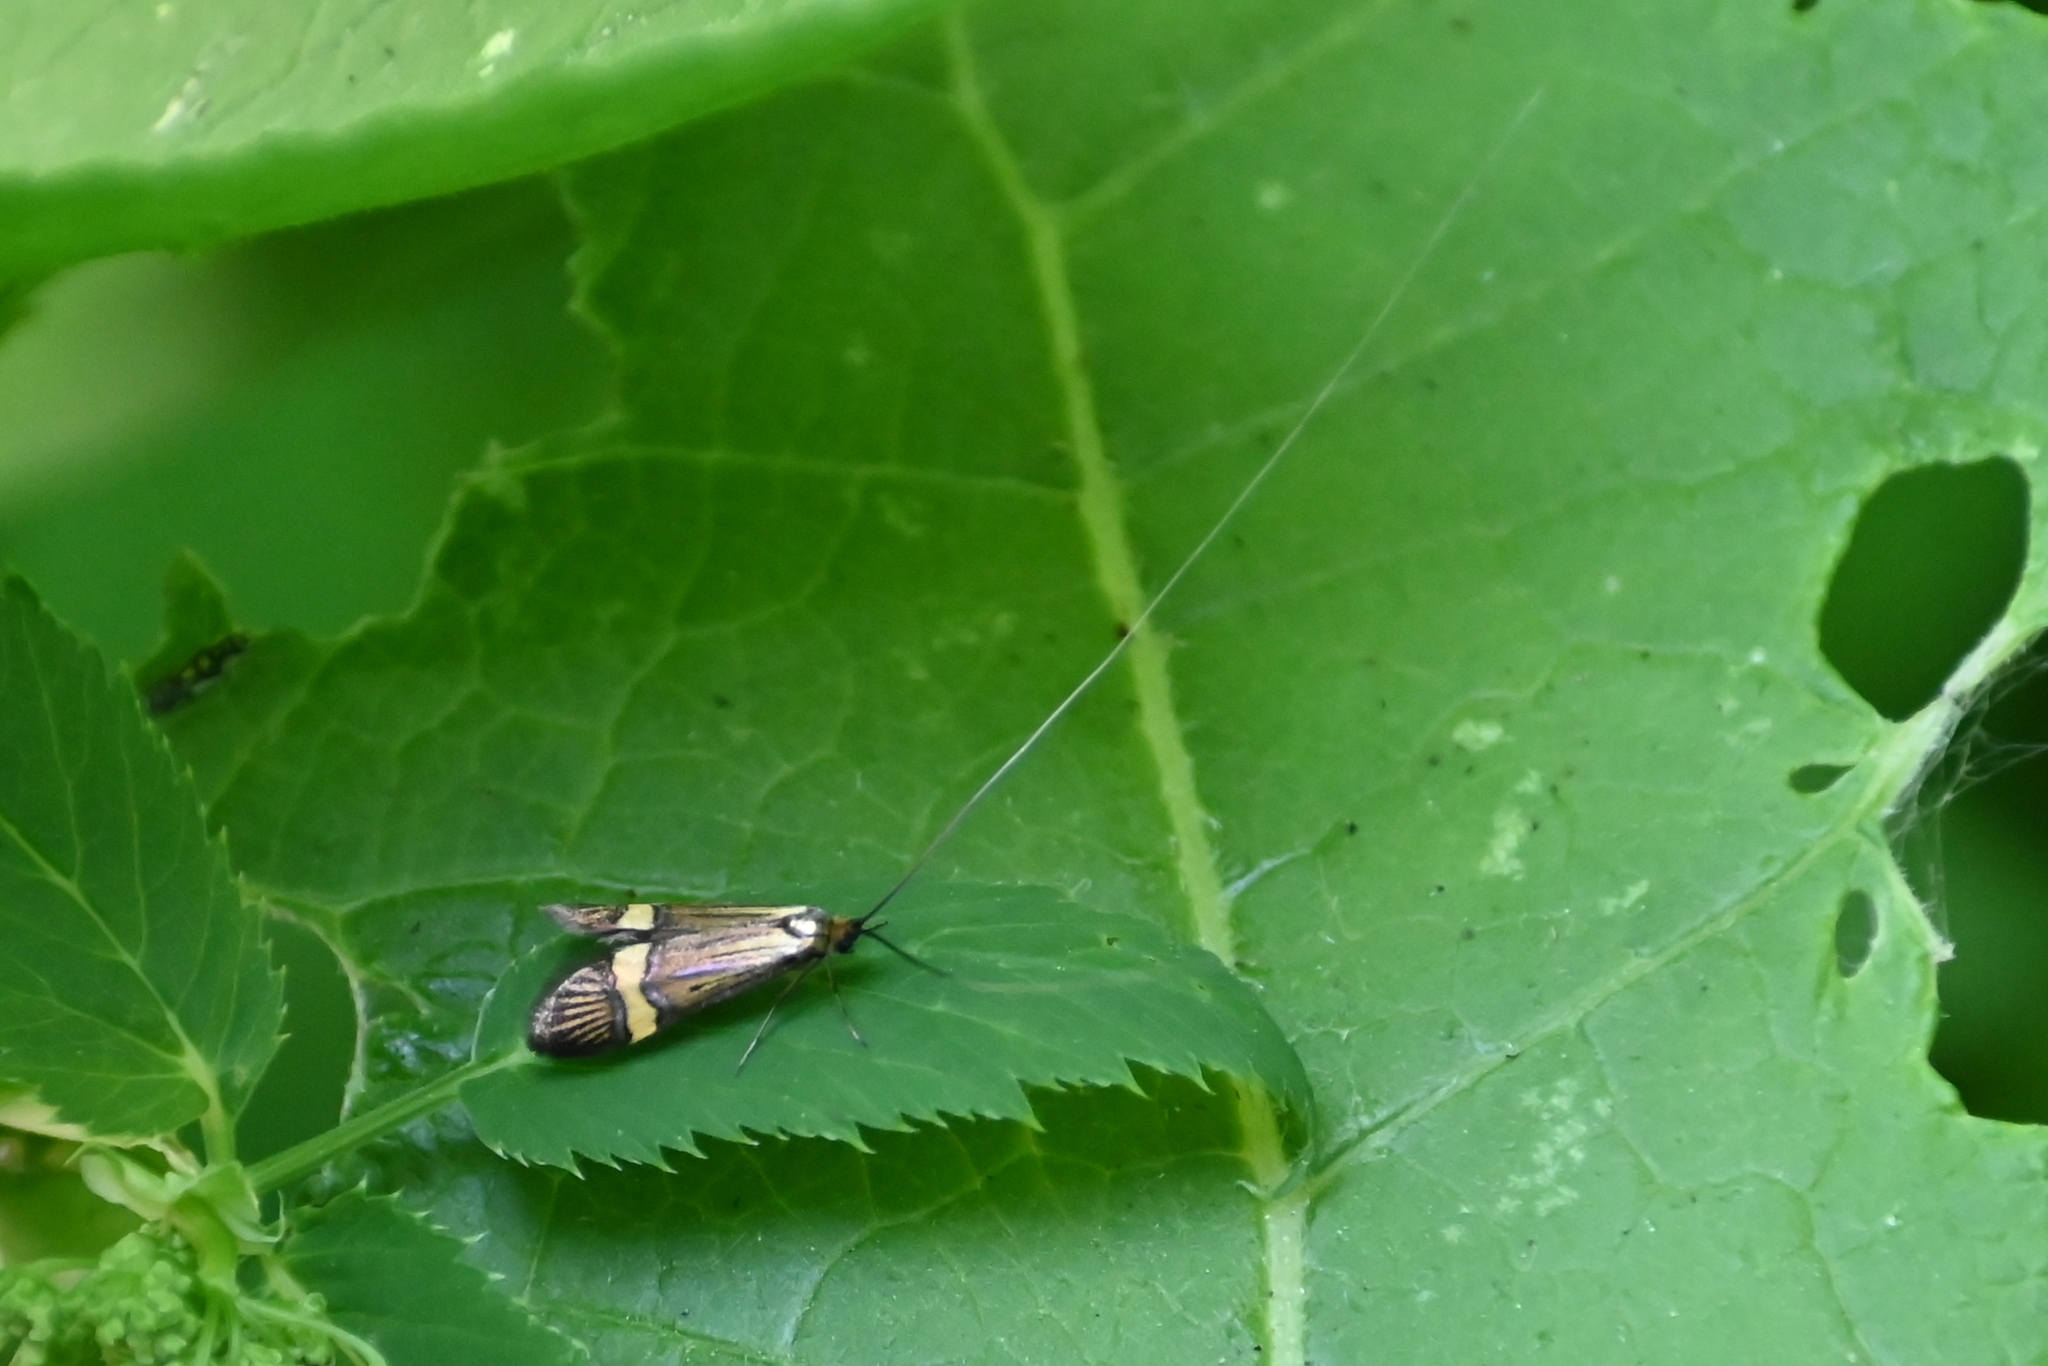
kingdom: Animalia
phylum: Arthropoda
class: Insecta
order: Lepidoptera
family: Adelidae
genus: Nemophora
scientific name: Nemophora
